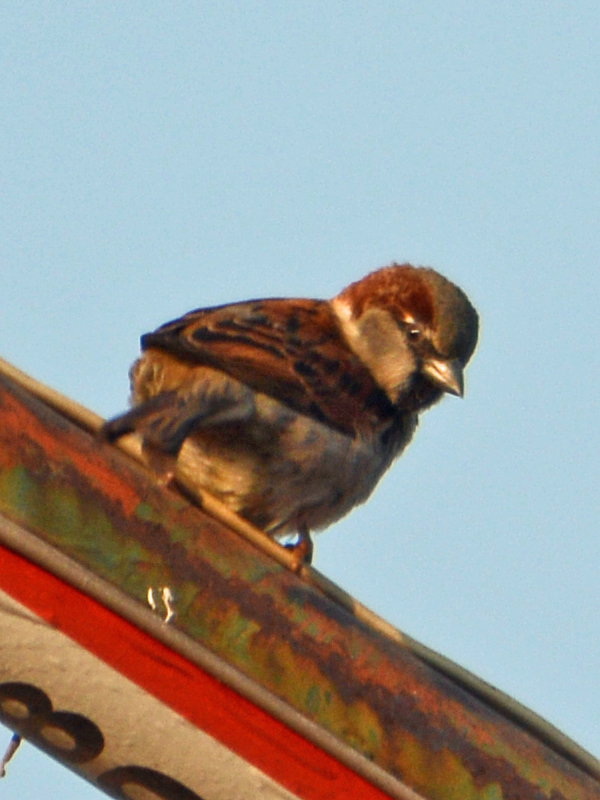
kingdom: Animalia
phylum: Chordata
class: Aves
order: Passeriformes
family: Passeridae
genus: Passer
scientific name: Passer domesticus
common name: House sparrow
